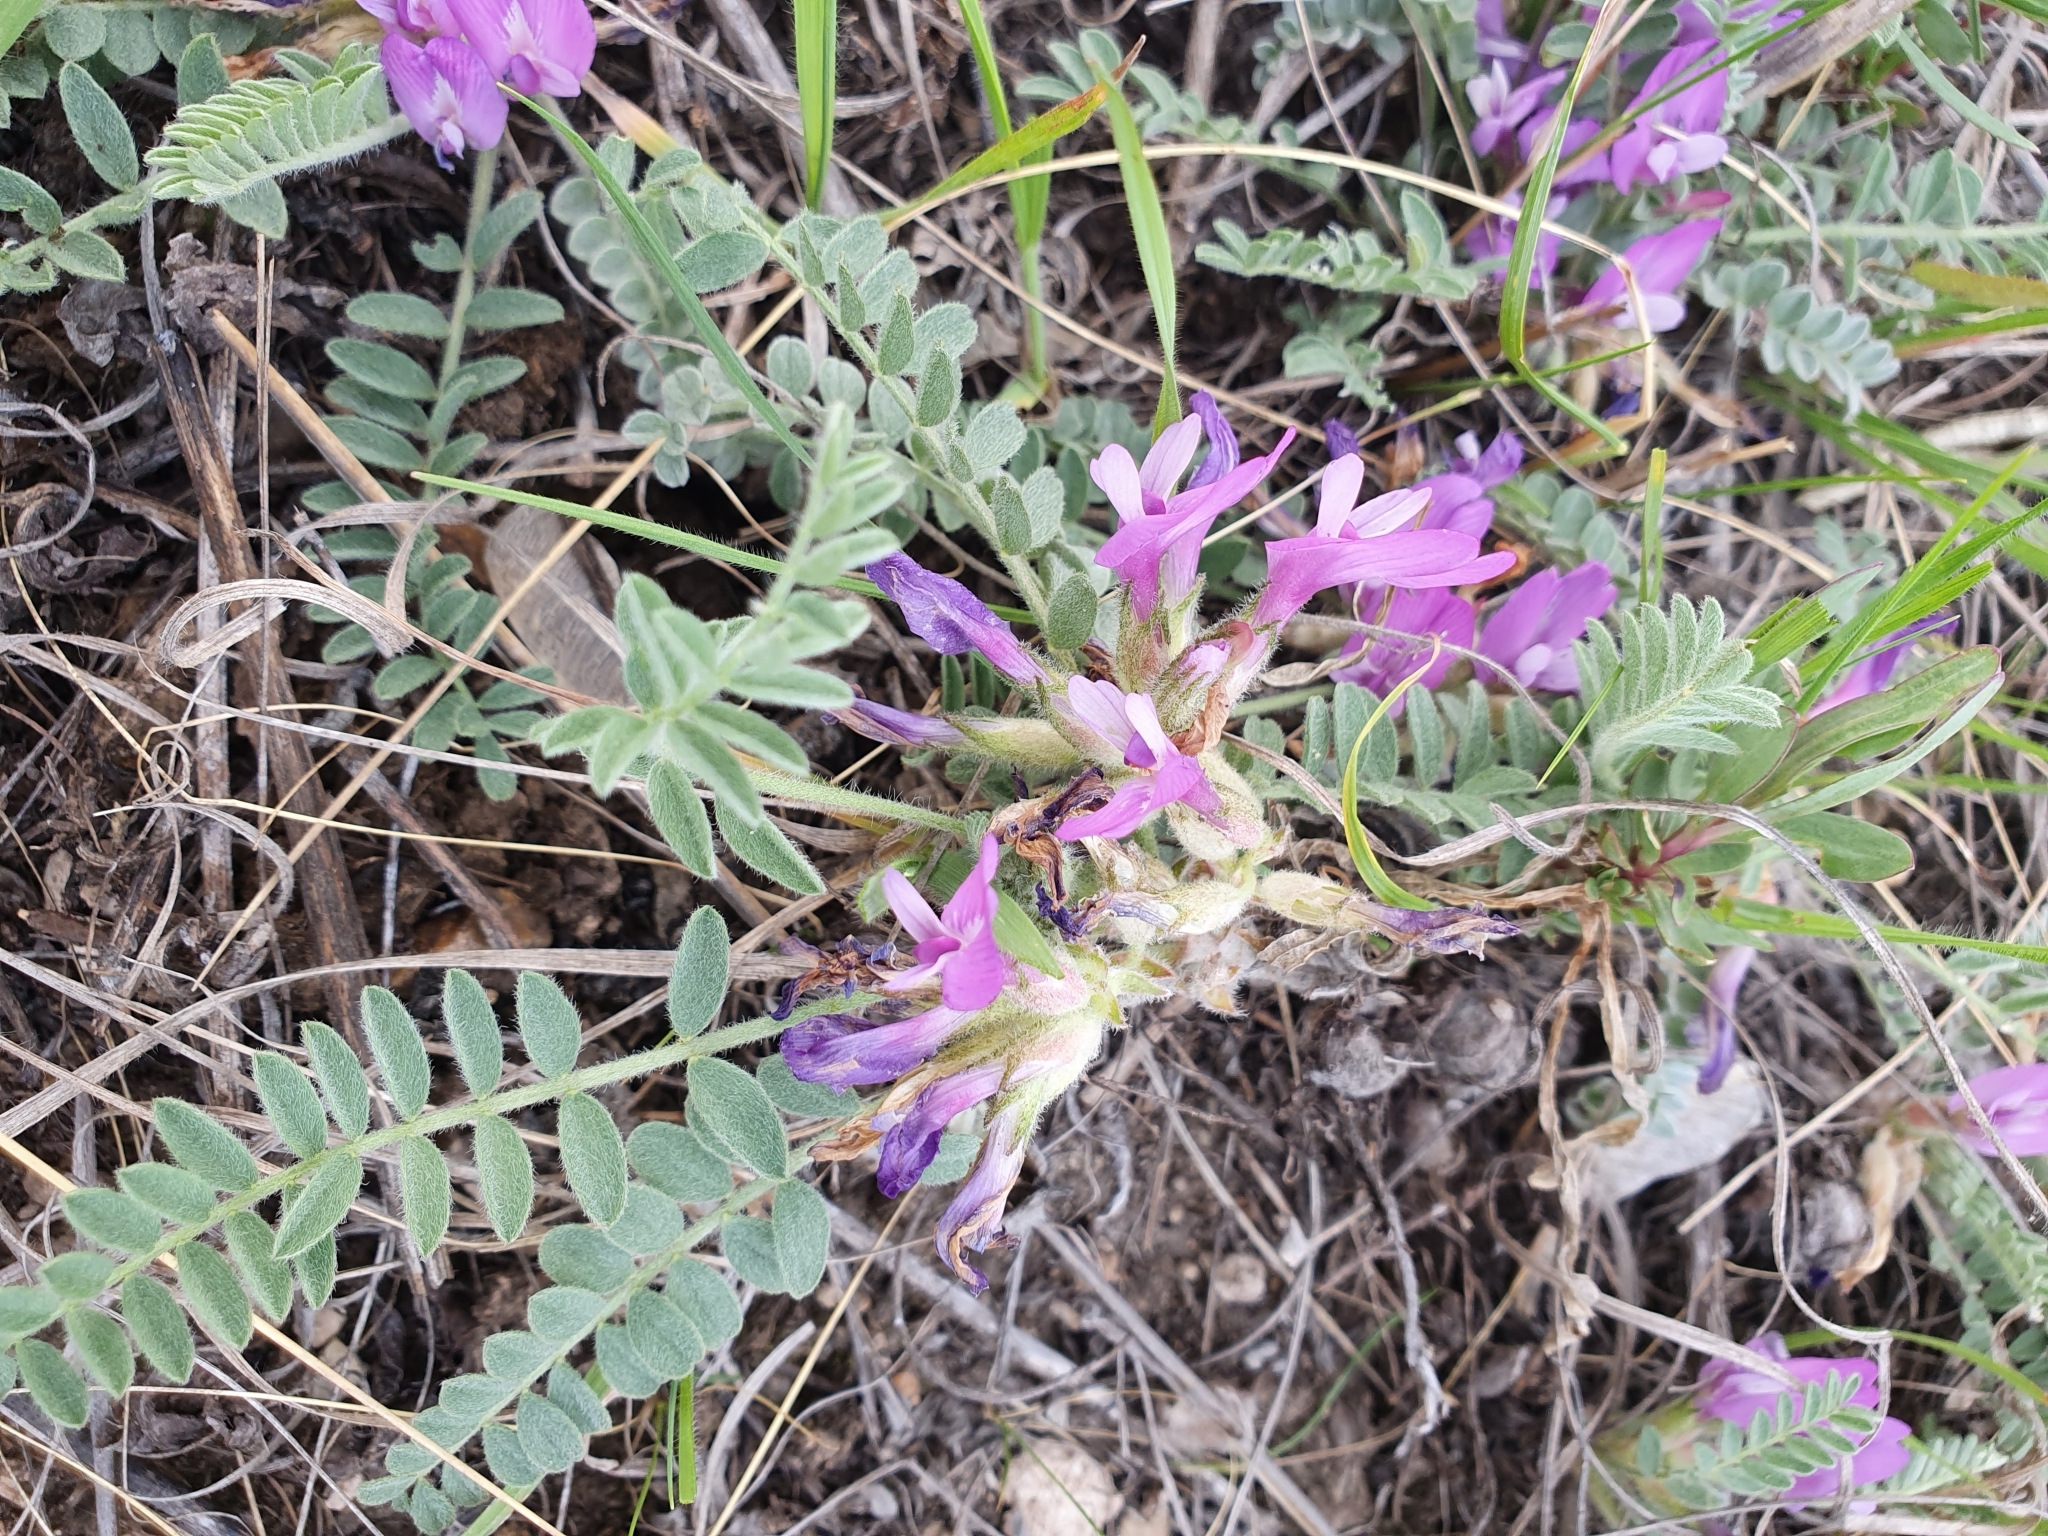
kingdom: Plantae
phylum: Tracheophyta
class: Magnoliopsida
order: Fabales
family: Fabaceae
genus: Astragalus
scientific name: Astragalus testiculatus
